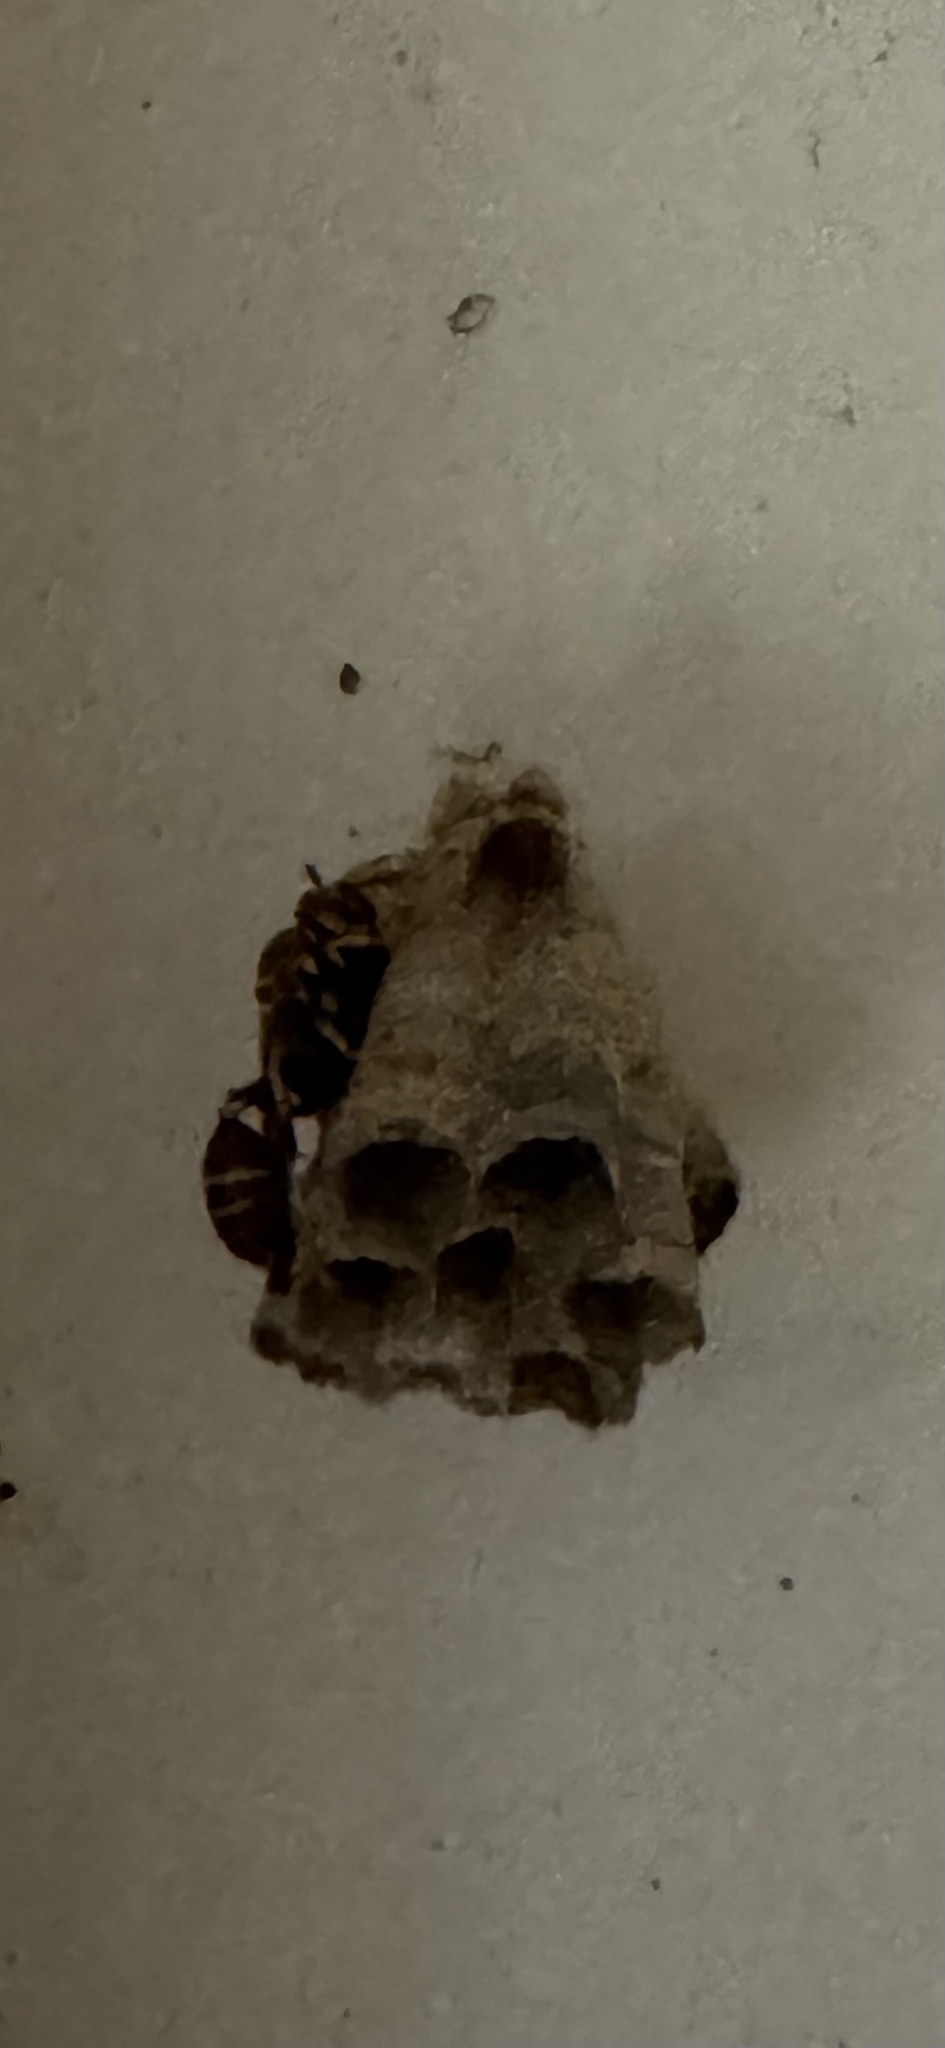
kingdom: Animalia
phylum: Arthropoda
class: Insecta
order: Hymenoptera
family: Vespidae
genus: Mischocyttarus
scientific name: Mischocyttarus mexicanus
